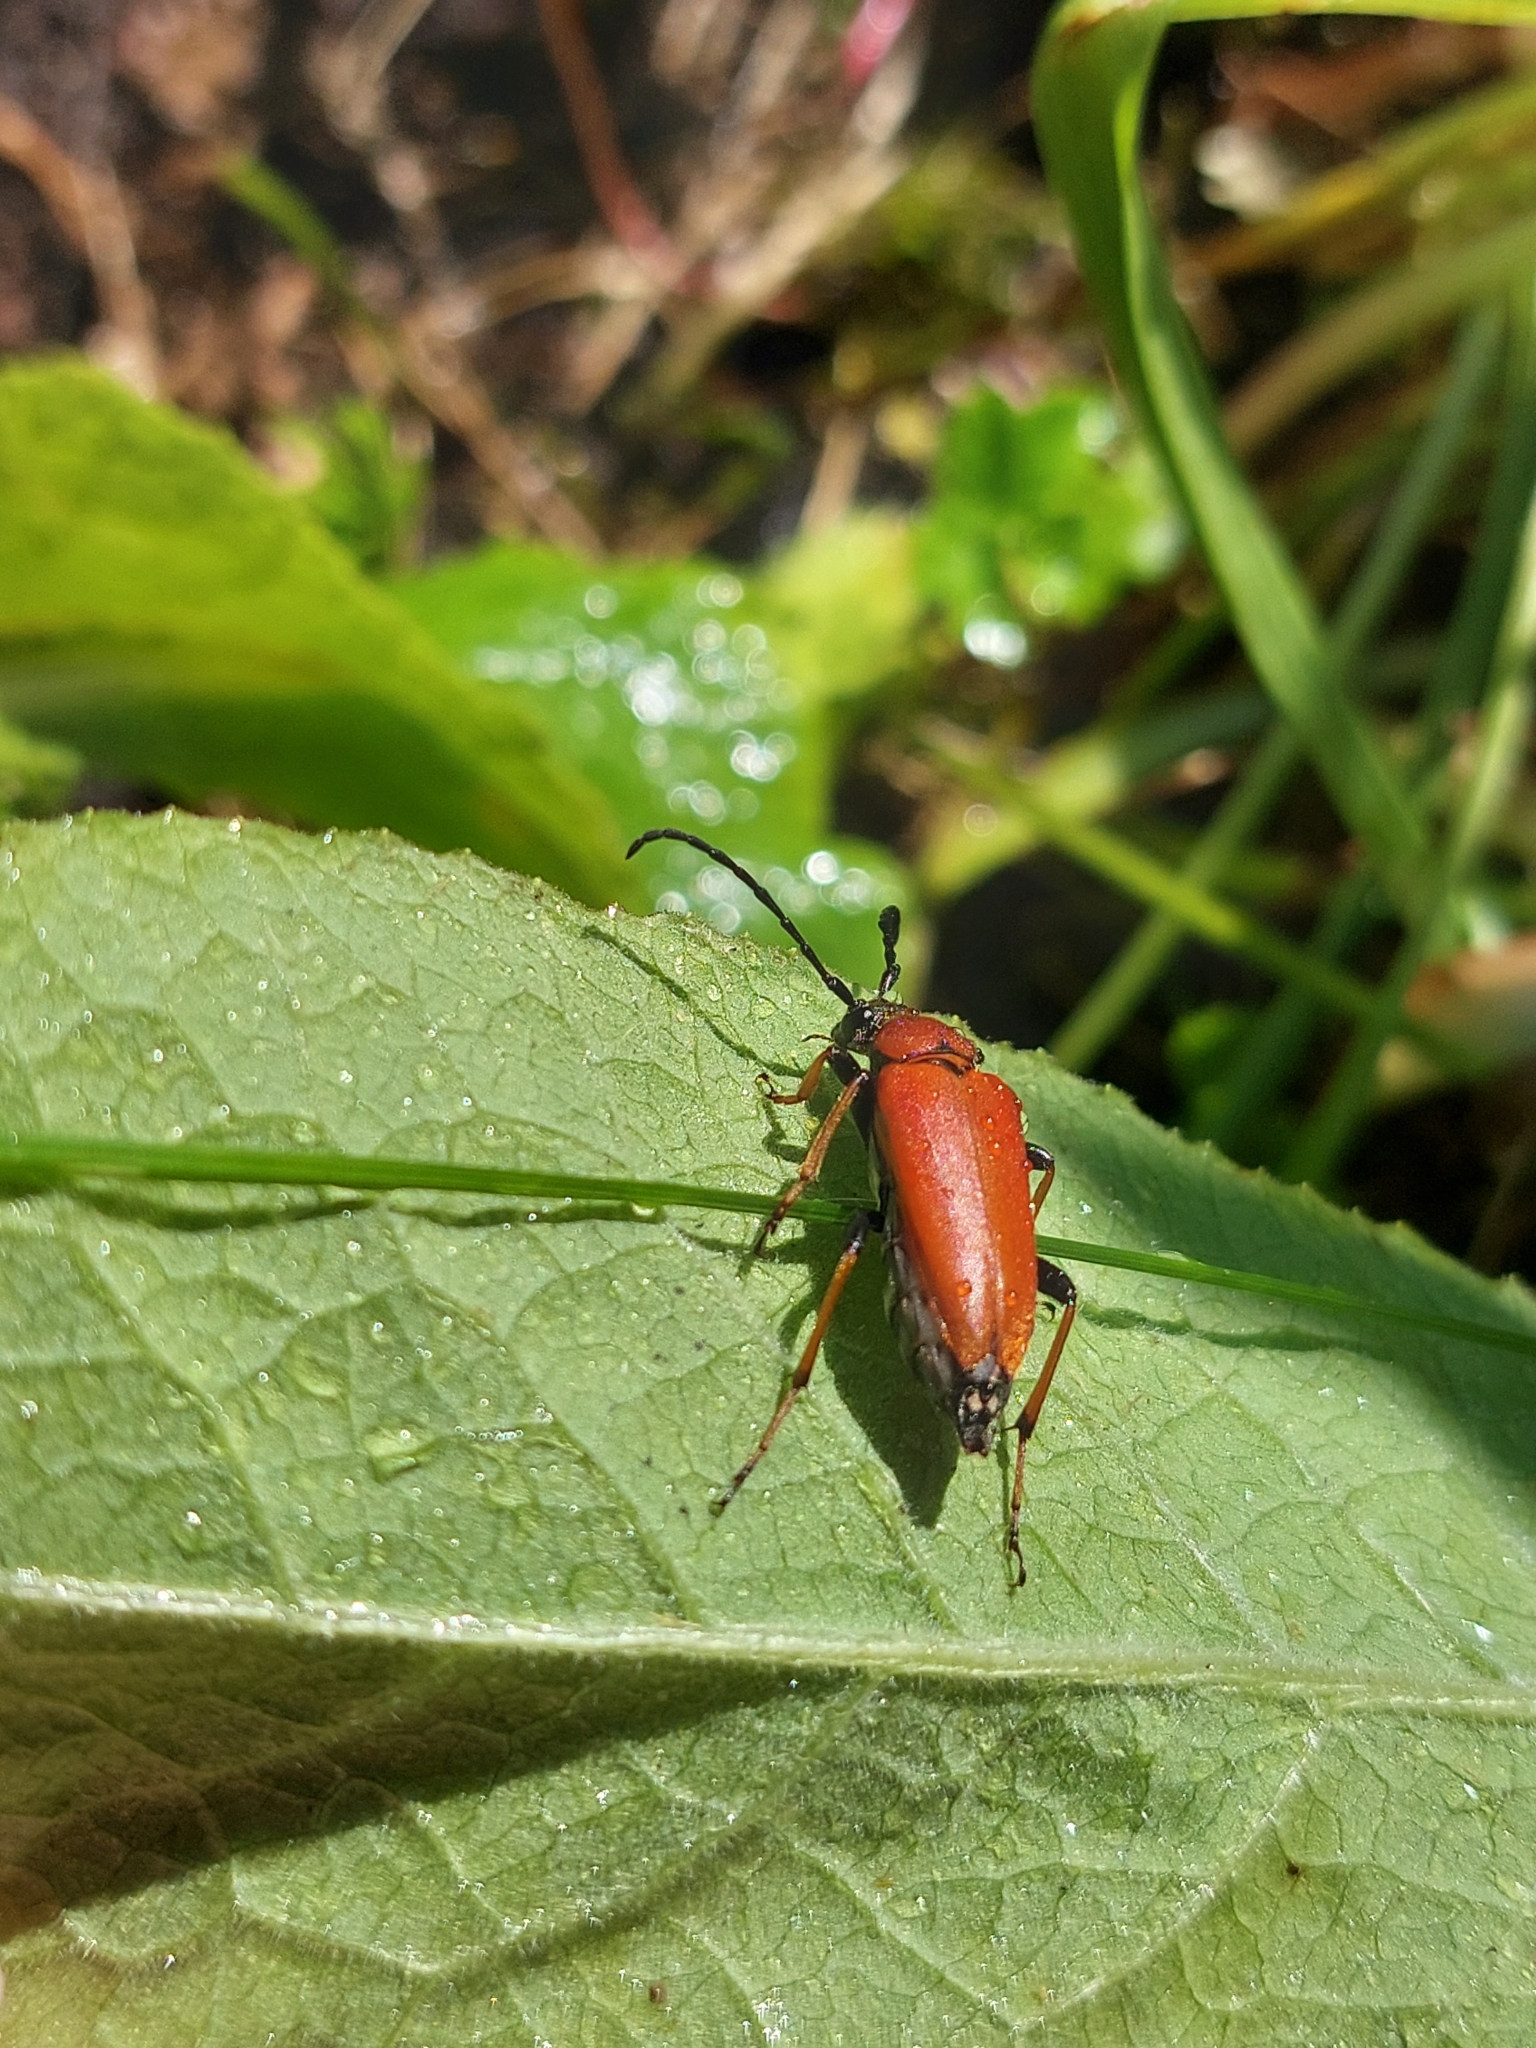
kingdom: Animalia
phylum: Arthropoda
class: Insecta
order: Coleoptera
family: Cerambycidae
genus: Stictoleptura
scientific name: Stictoleptura rubra
